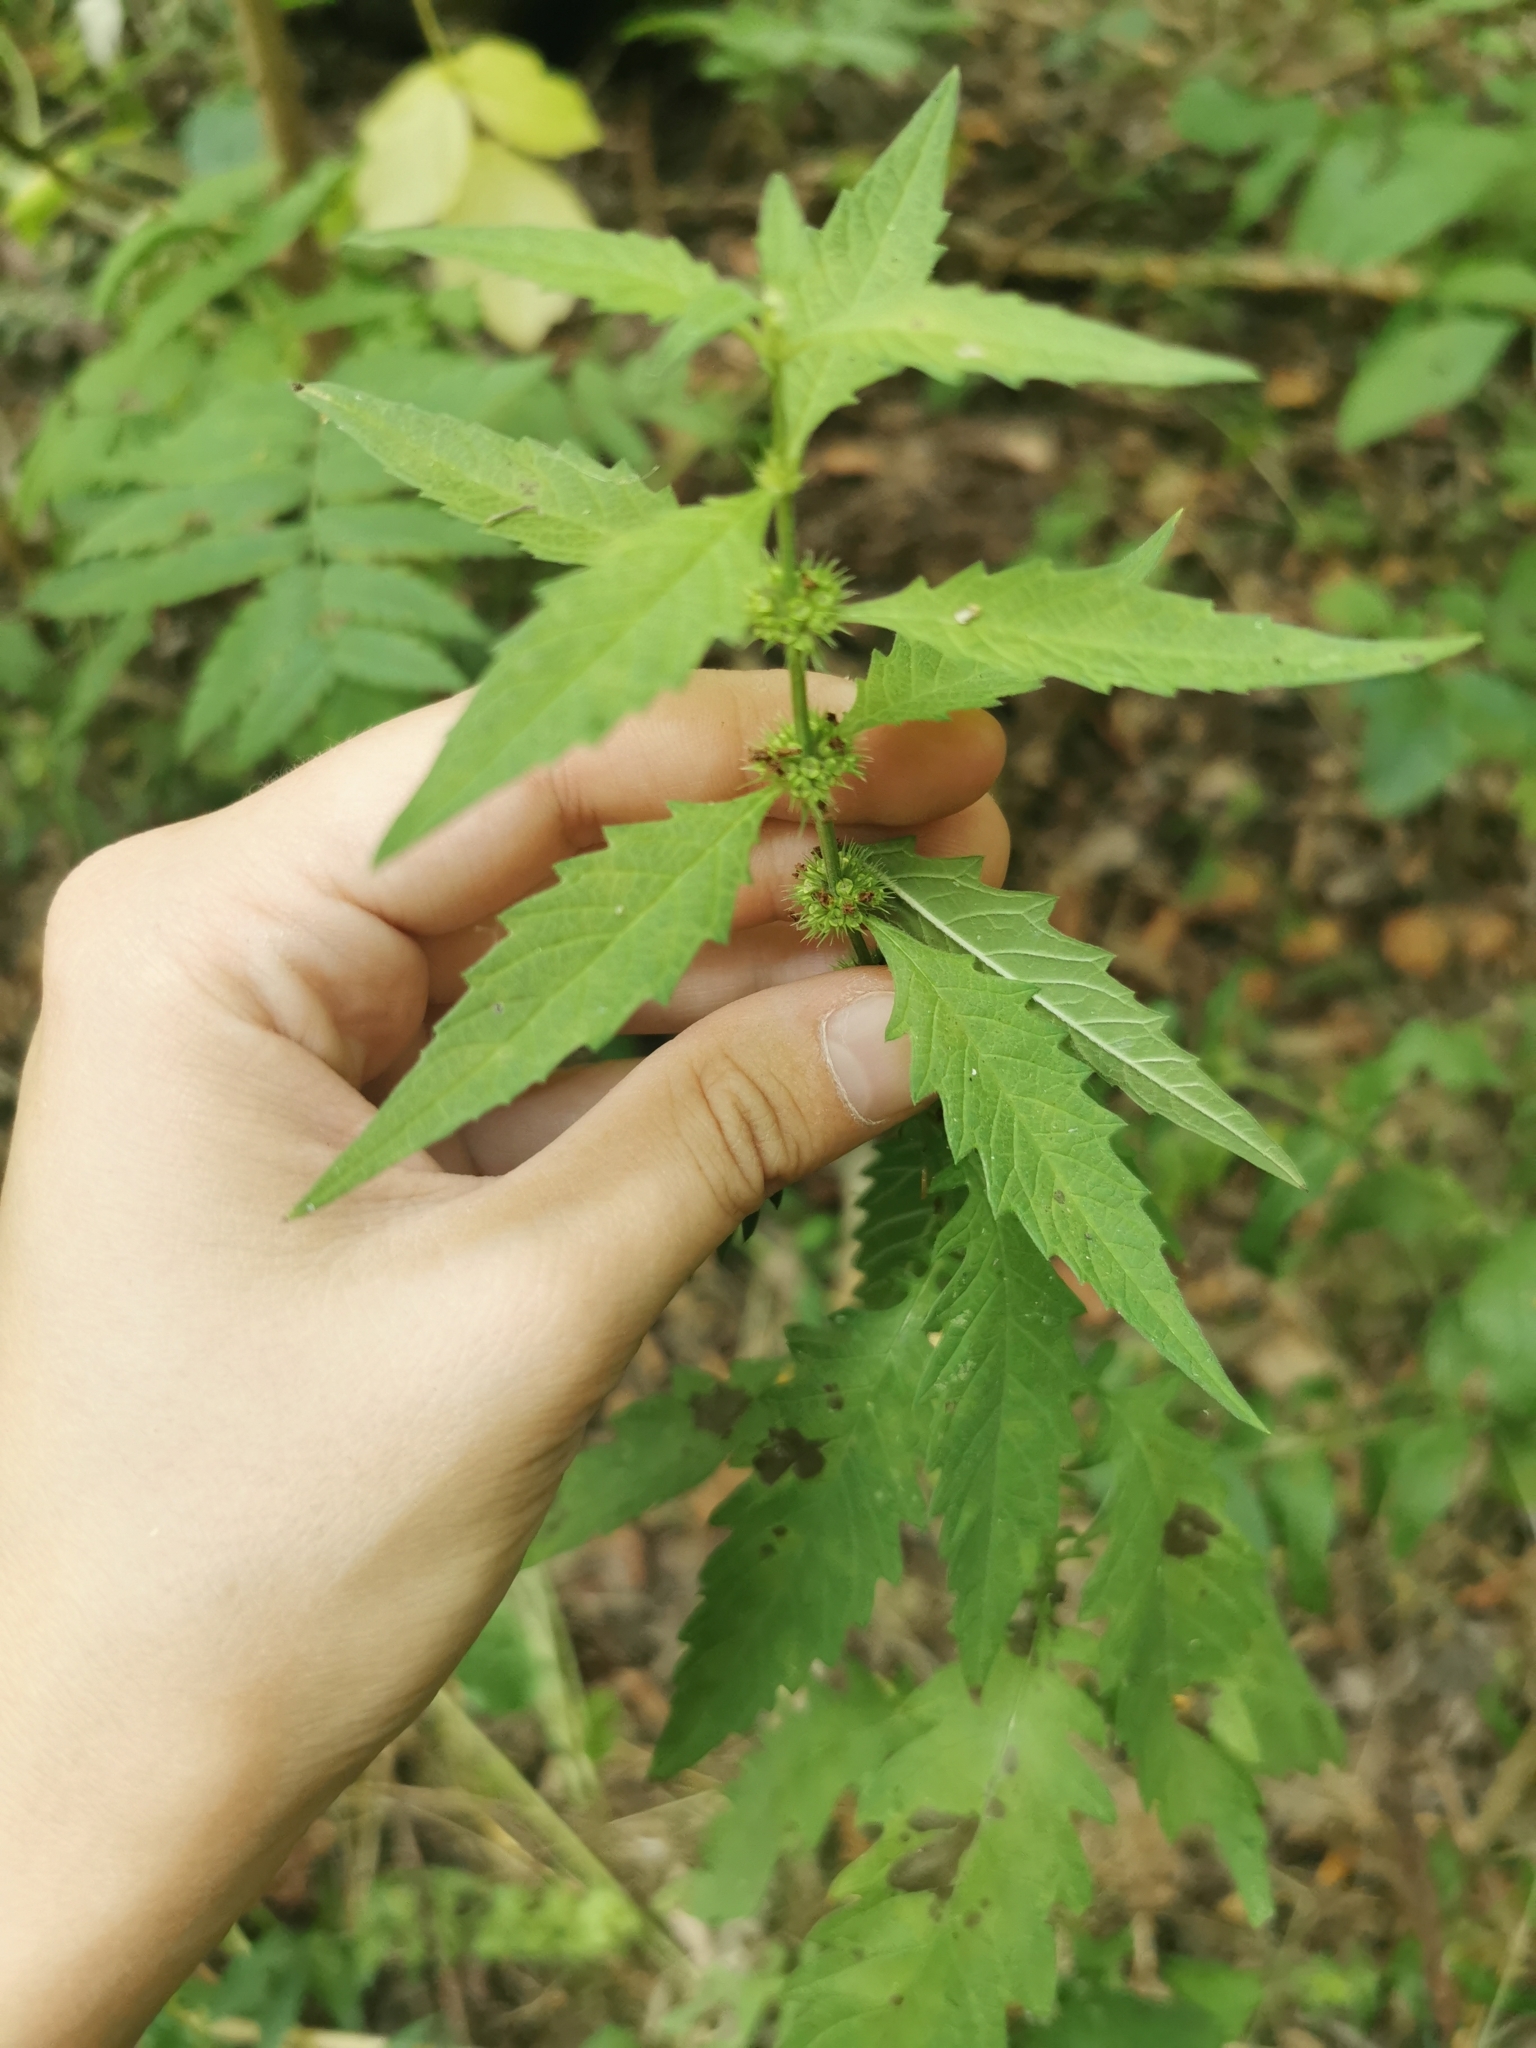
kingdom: Plantae
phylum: Tracheophyta
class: Magnoliopsida
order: Lamiales
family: Lamiaceae
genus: Lycopus
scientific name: Lycopus europaeus
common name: European bugleweed
